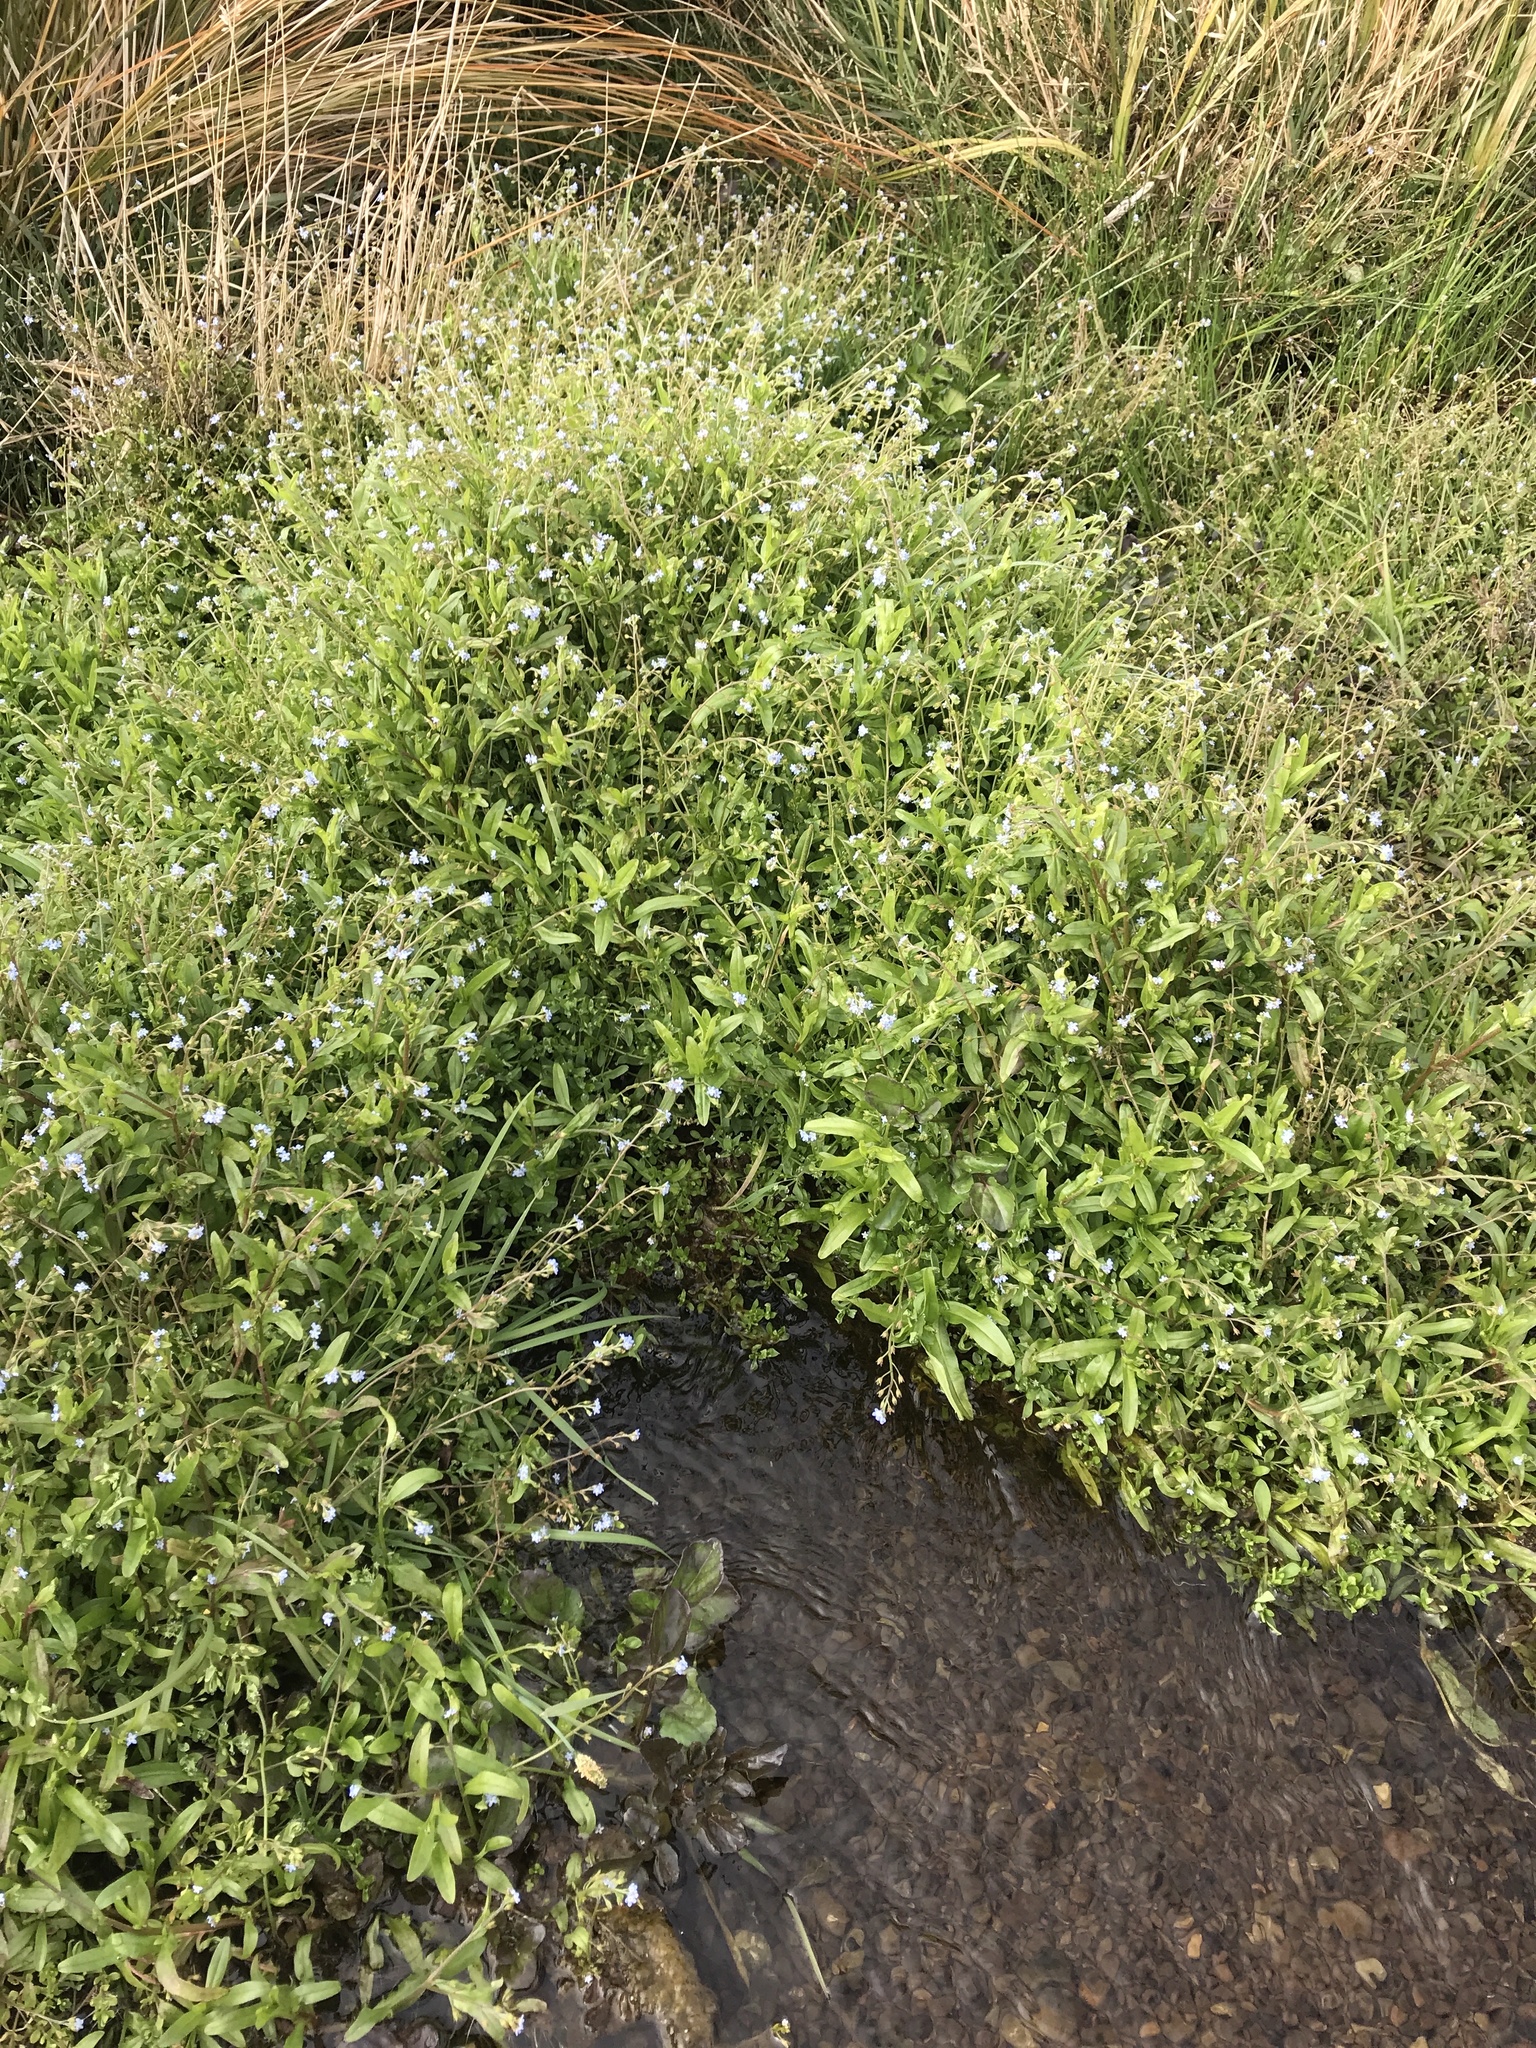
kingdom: Plantae
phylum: Tracheophyta
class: Magnoliopsida
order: Boraginales
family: Boraginaceae
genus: Myosotis
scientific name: Myosotis scorpioides
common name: Water forget-me-not
